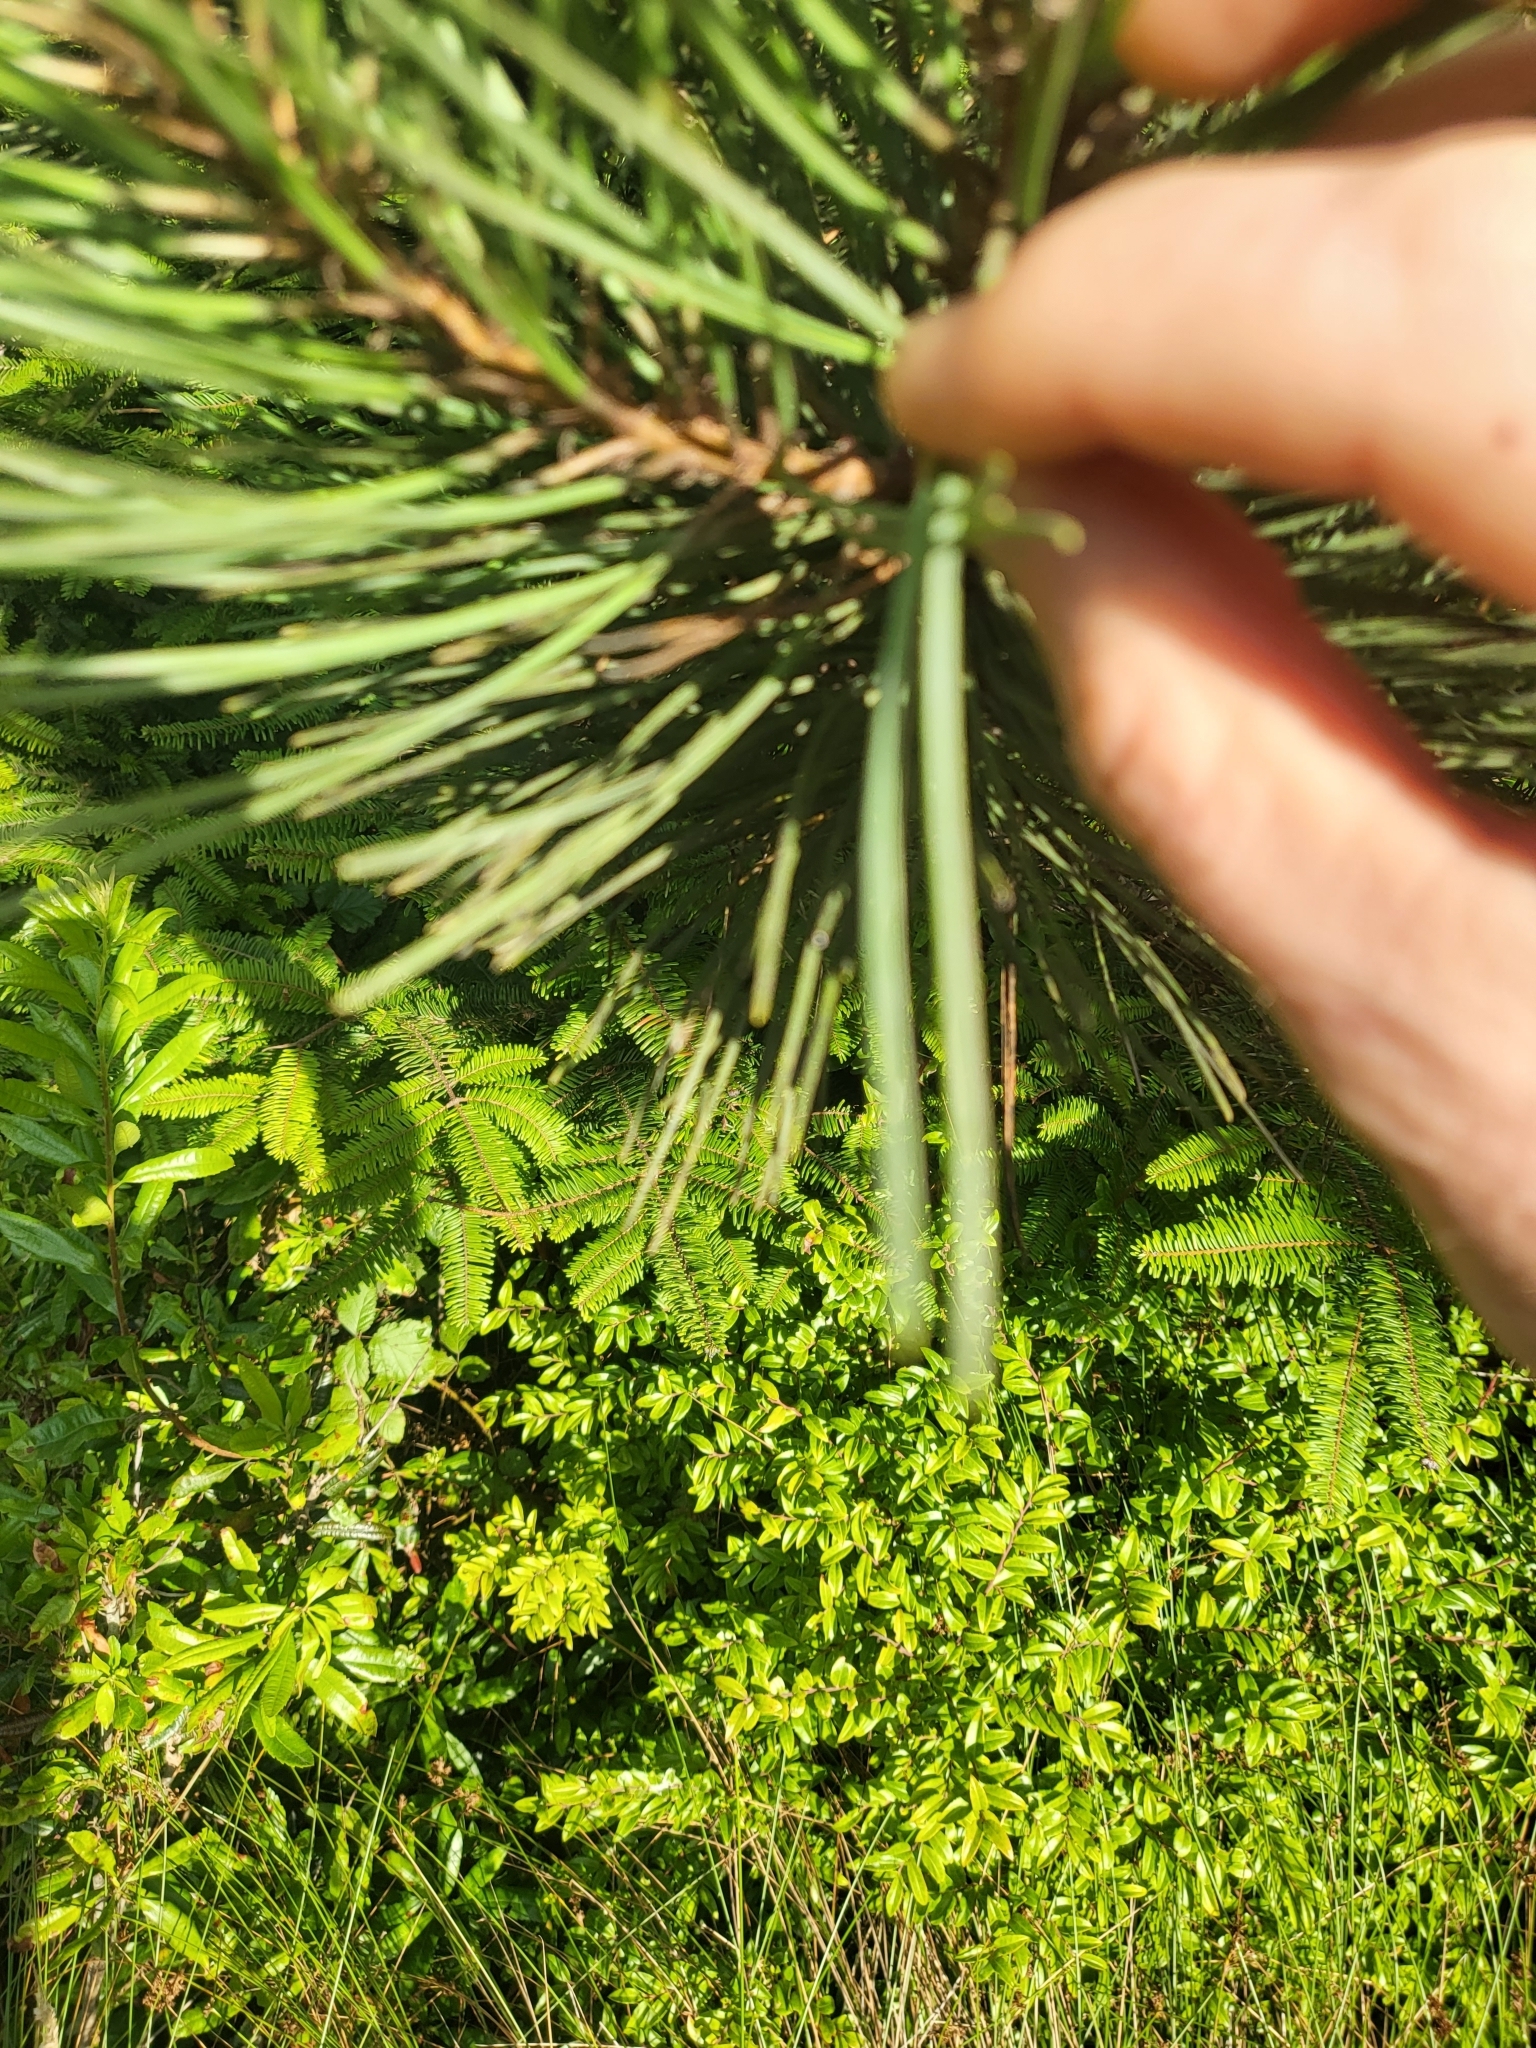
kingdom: Plantae
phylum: Tracheophyta
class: Pinopsida
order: Pinales
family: Pinaceae
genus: Pinus
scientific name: Pinus muricata
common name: Bishop pine
